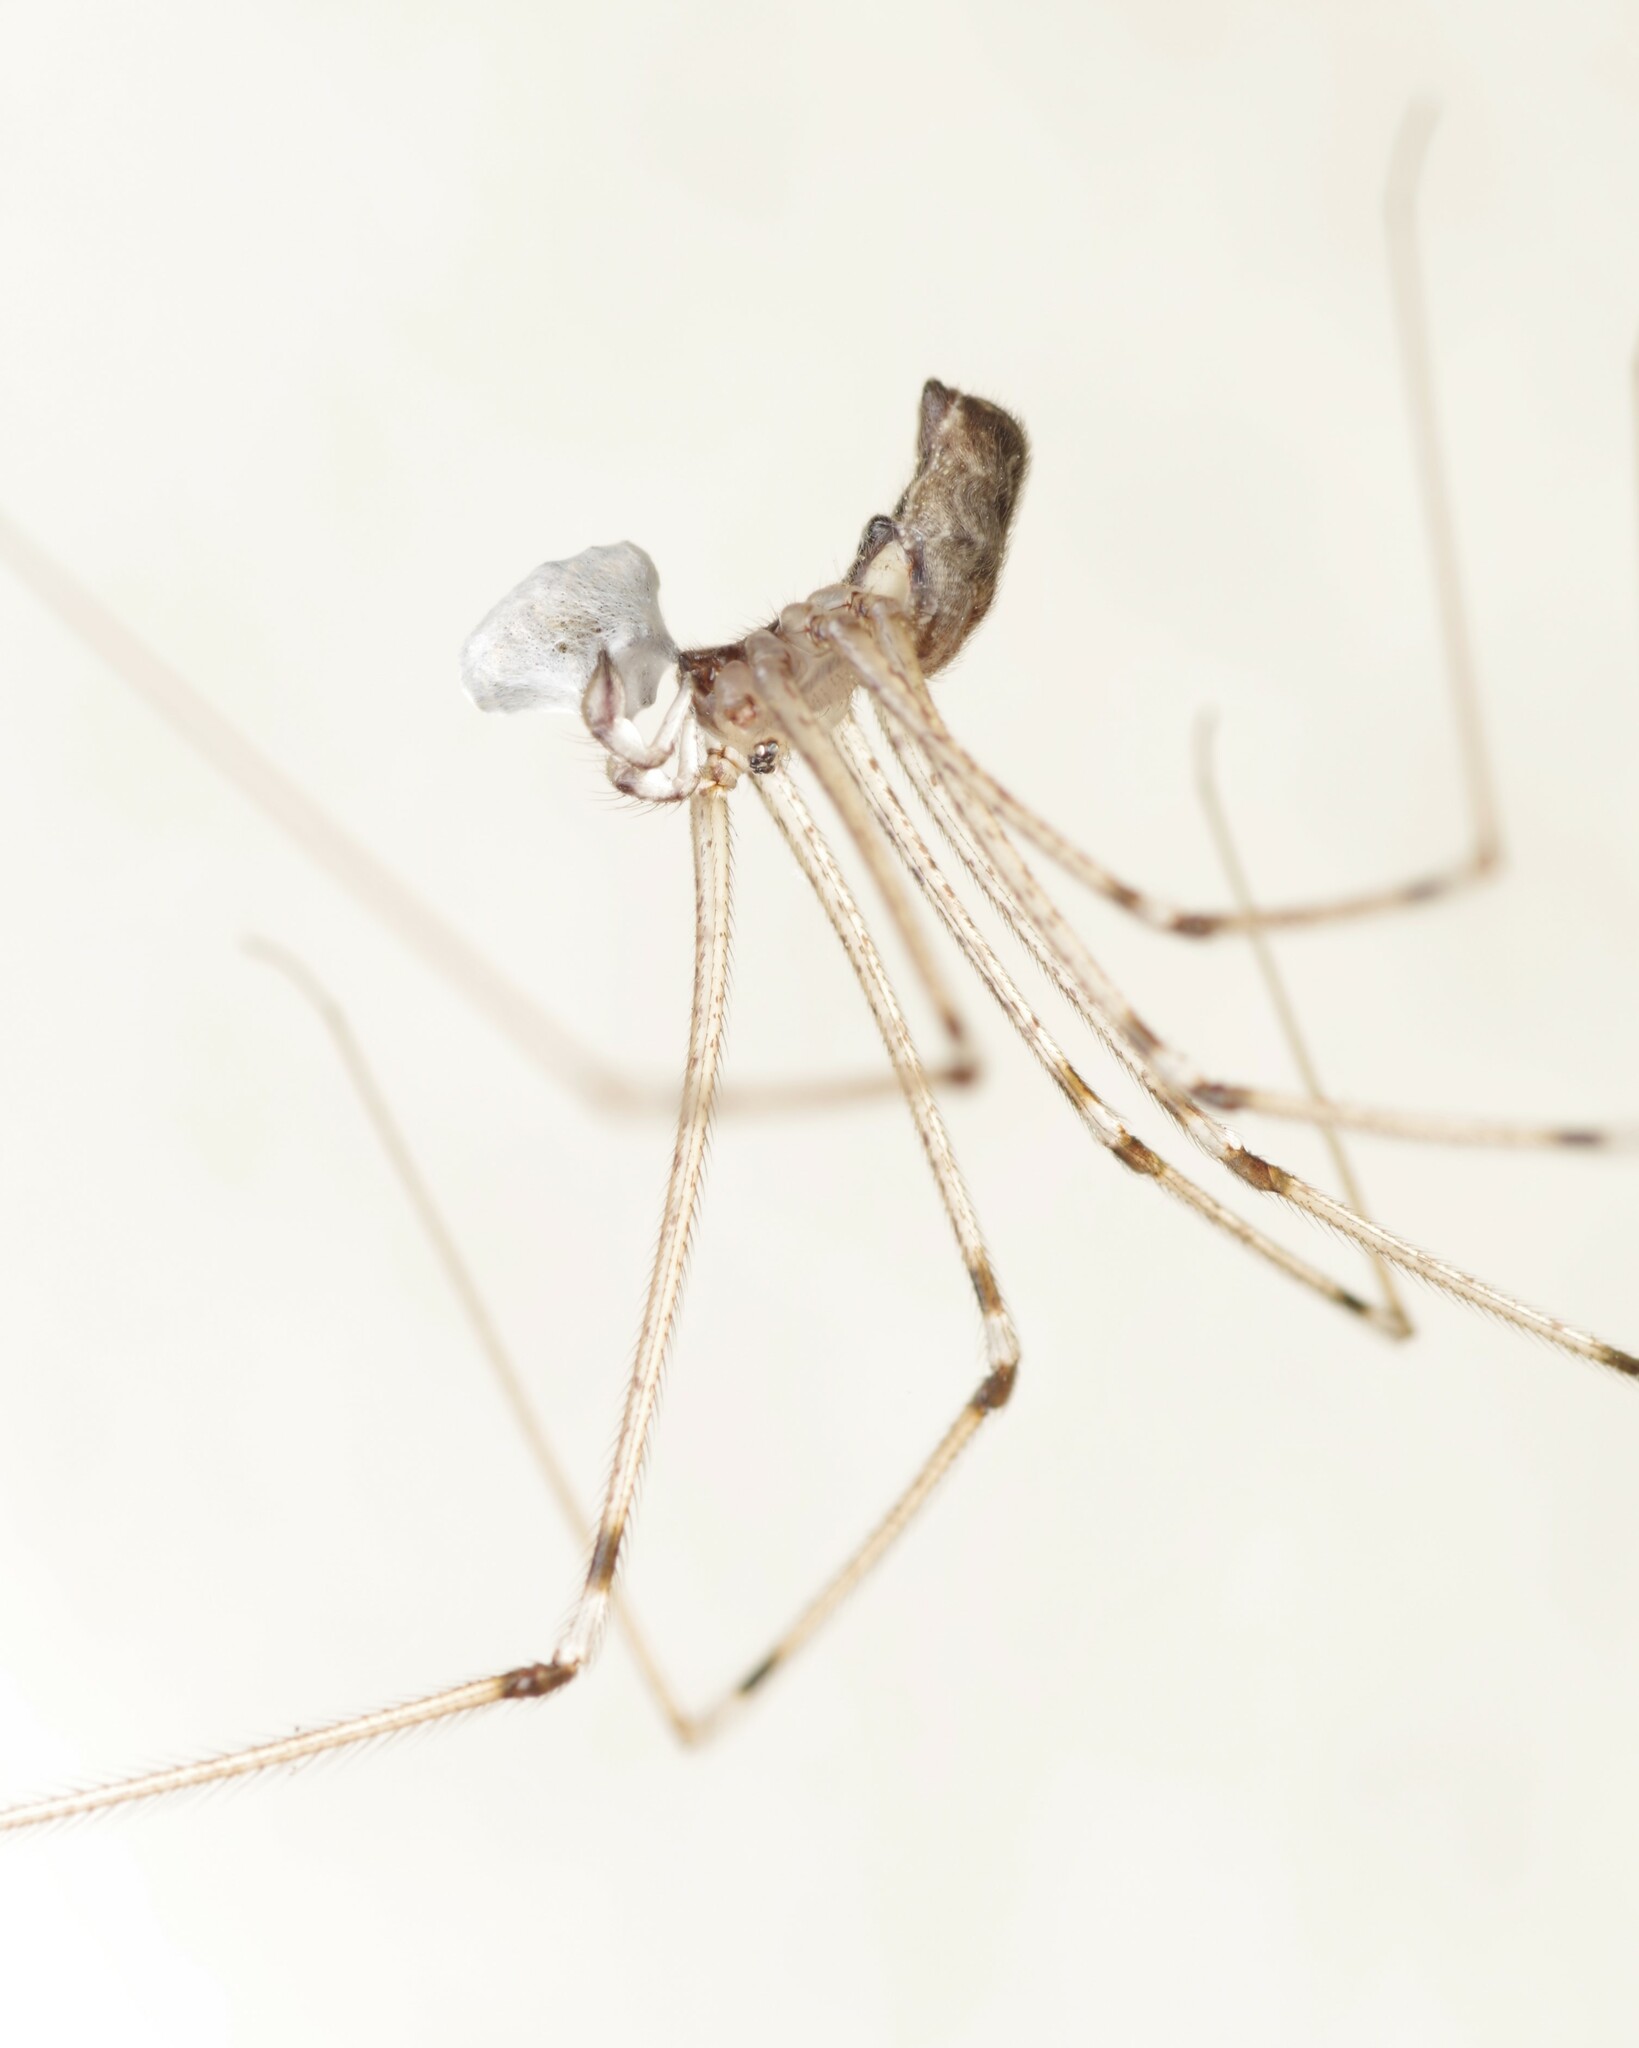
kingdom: Animalia
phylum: Arthropoda
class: Arachnida
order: Araneae
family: Pholcidae
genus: Holocnemus
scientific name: Holocnemus pluchei
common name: Marbled cellar spider
